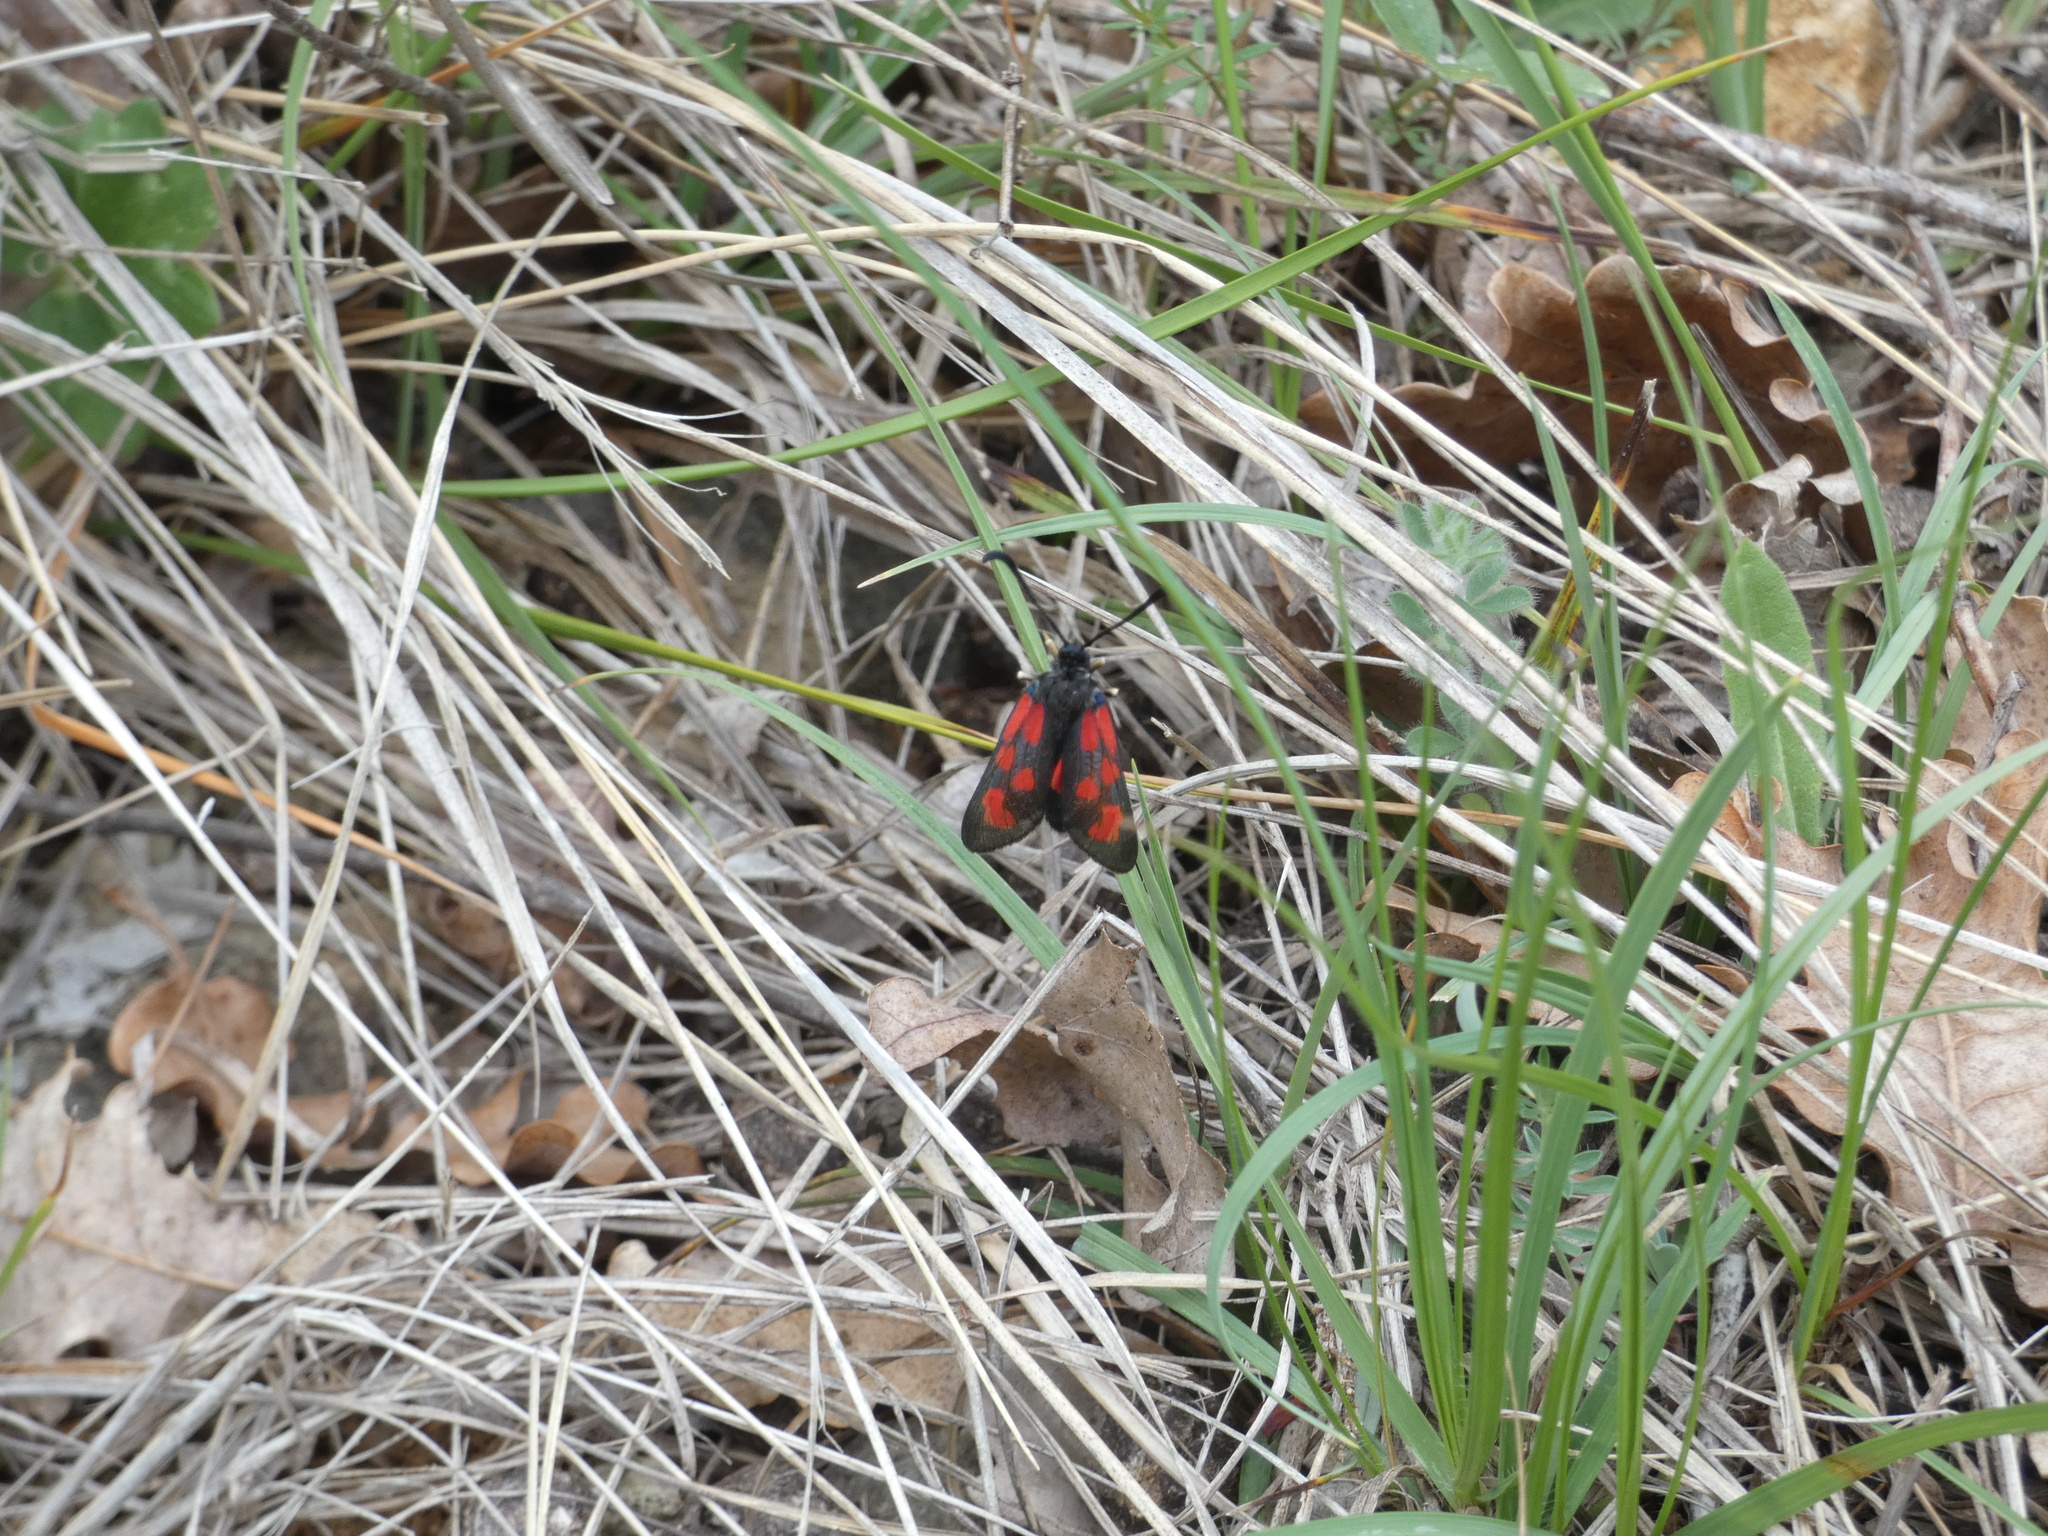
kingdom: Animalia
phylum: Arthropoda
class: Insecta
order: Lepidoptera
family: Zygaenidae
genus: Zygaena
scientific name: Zygaena loti
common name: Slender scotch burnet
